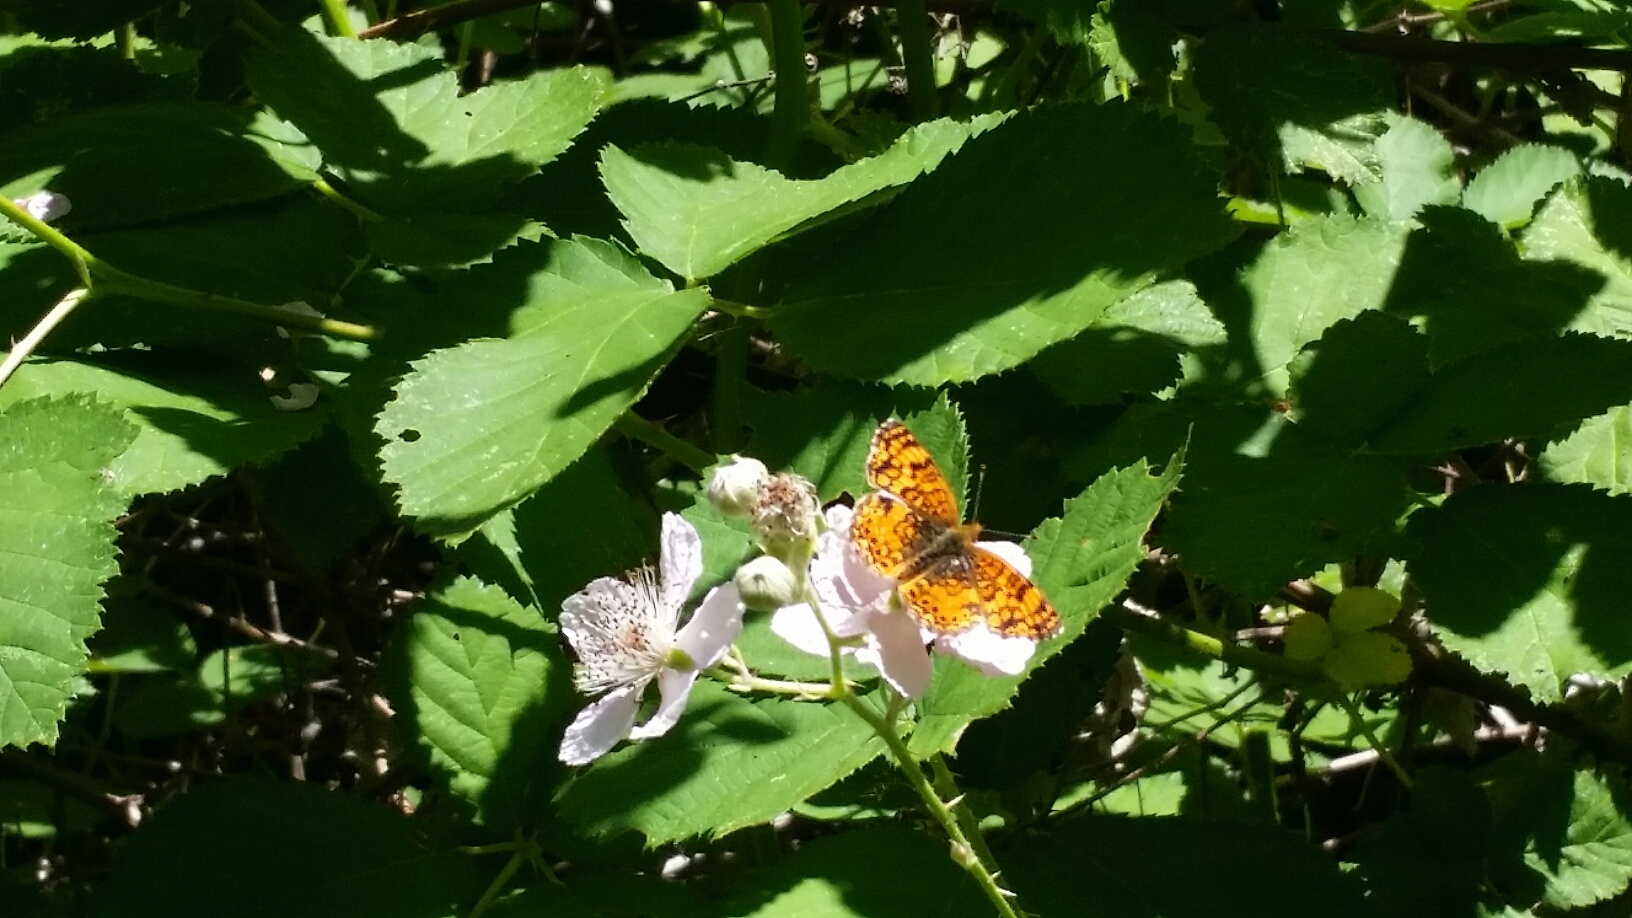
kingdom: Animalia
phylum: Arthropoda
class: Insecta
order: Lepidoptera
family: Nymphalidae
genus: Eresia
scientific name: Eresia aveyrona
